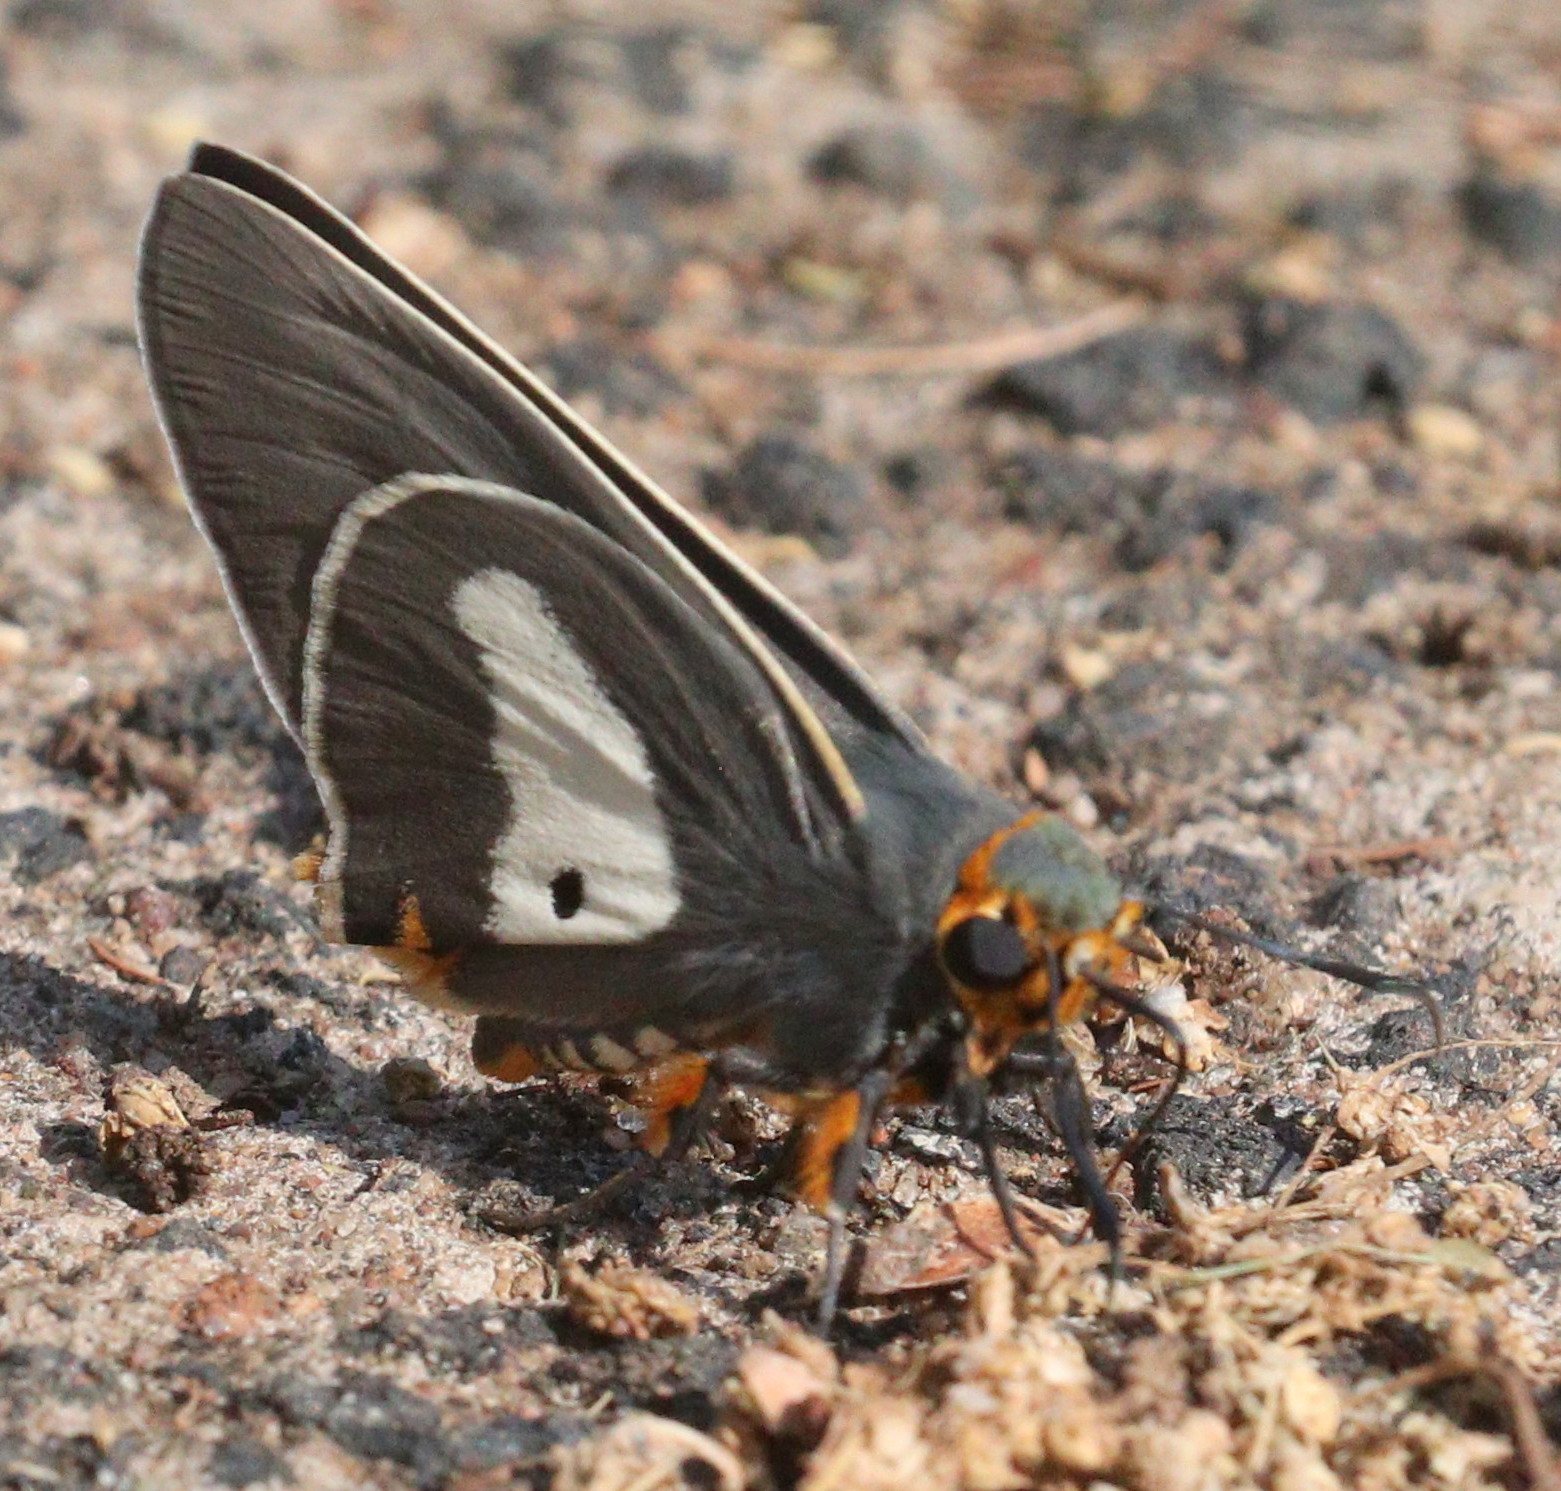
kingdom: Animalia
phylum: Arthropoda
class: Insecta
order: Lepidoptera
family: Hesperiidae
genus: Coeliades
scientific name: Coeliades anchises
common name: One-pip policeman
